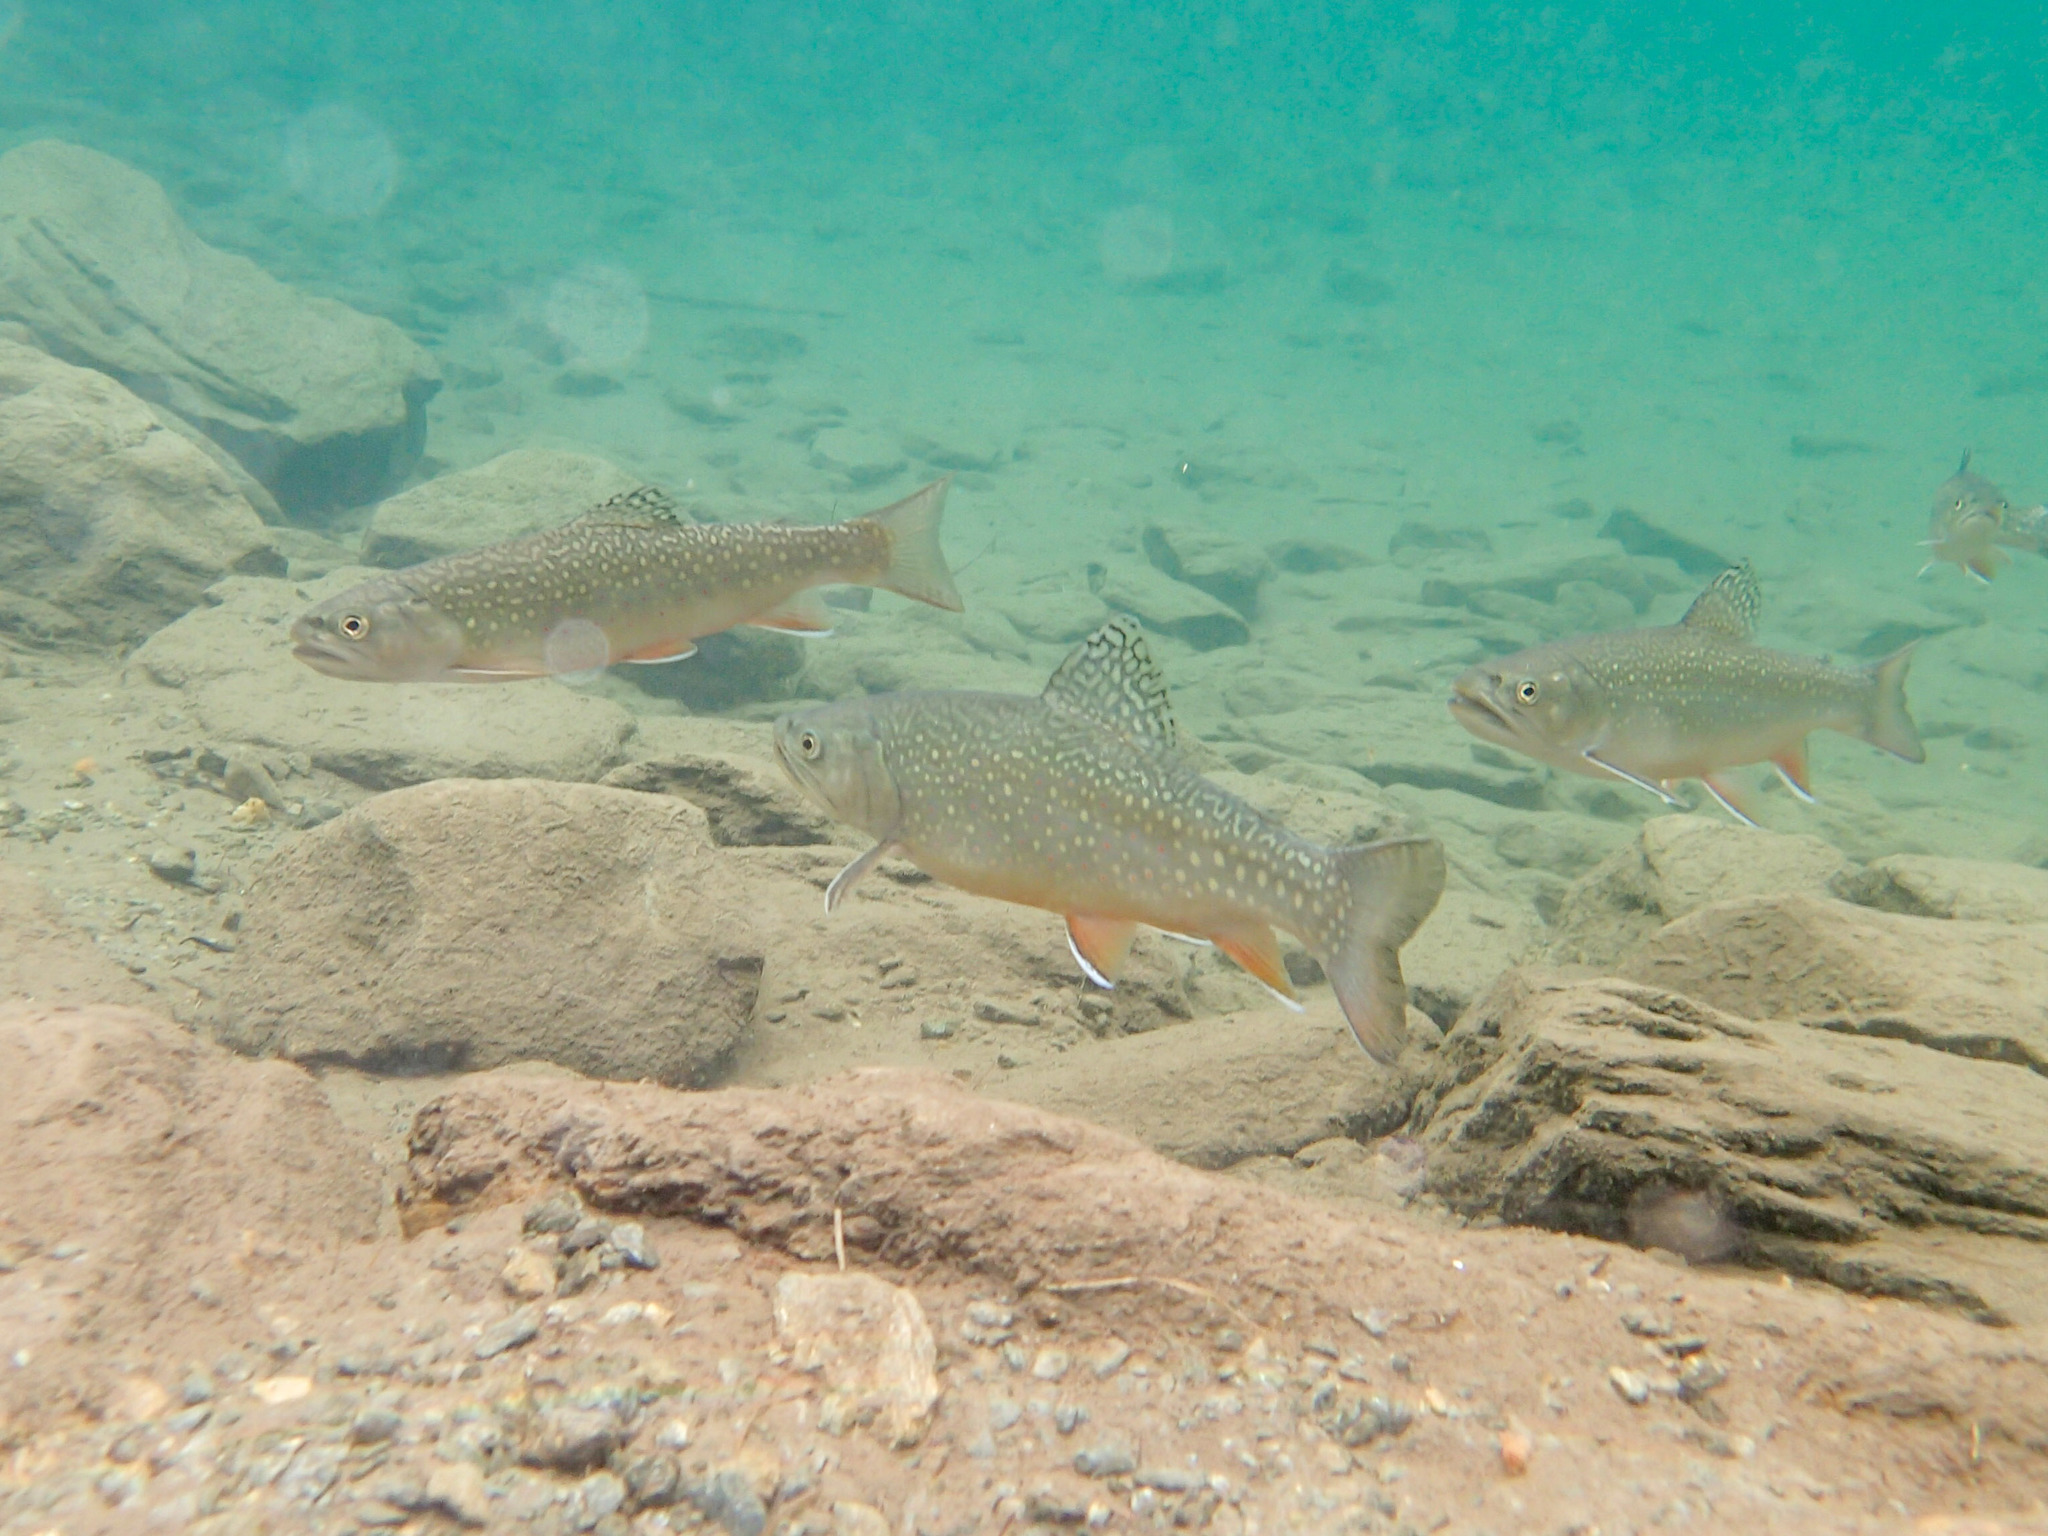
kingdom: Animalia
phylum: Chordata
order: Salmoniformes
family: Salmonidae
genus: Salvelinus
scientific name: Salvelinus fontinalis
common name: Brook trout
